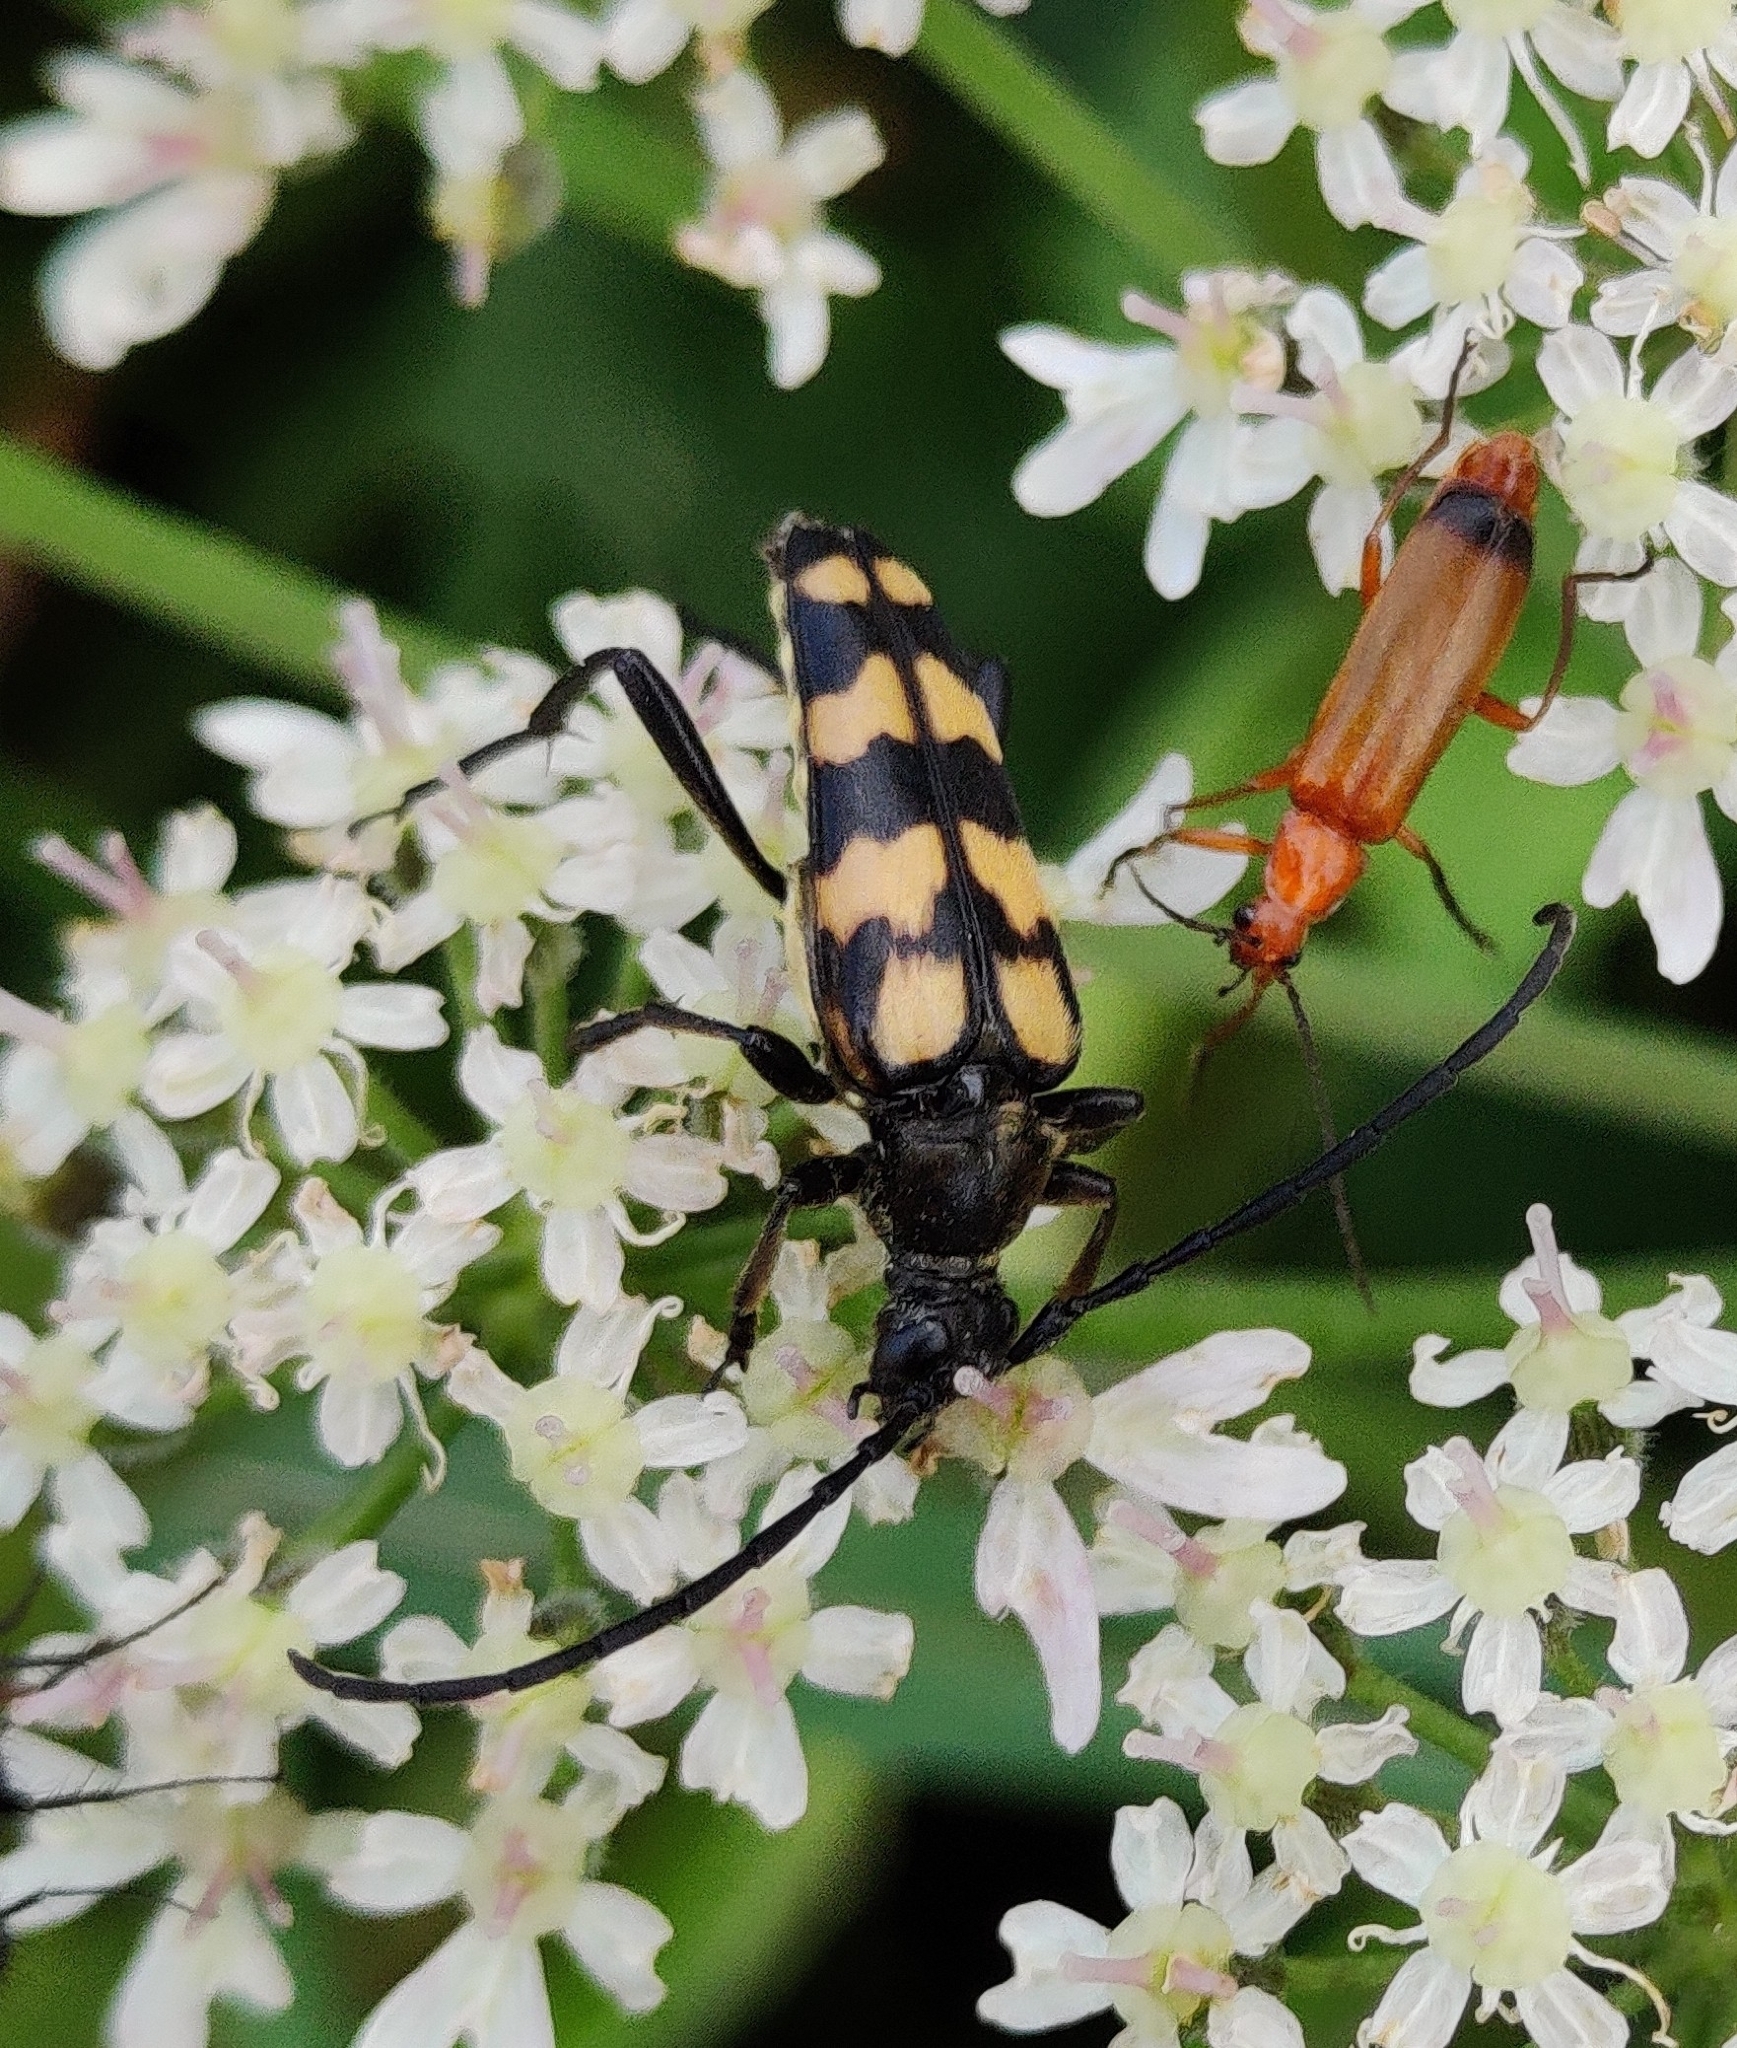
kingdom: Animalia
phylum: Arthropoda
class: Insecta
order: Coleoptera
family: Cerambycidae
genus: Leptura
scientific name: Leptura quadrifasciata
